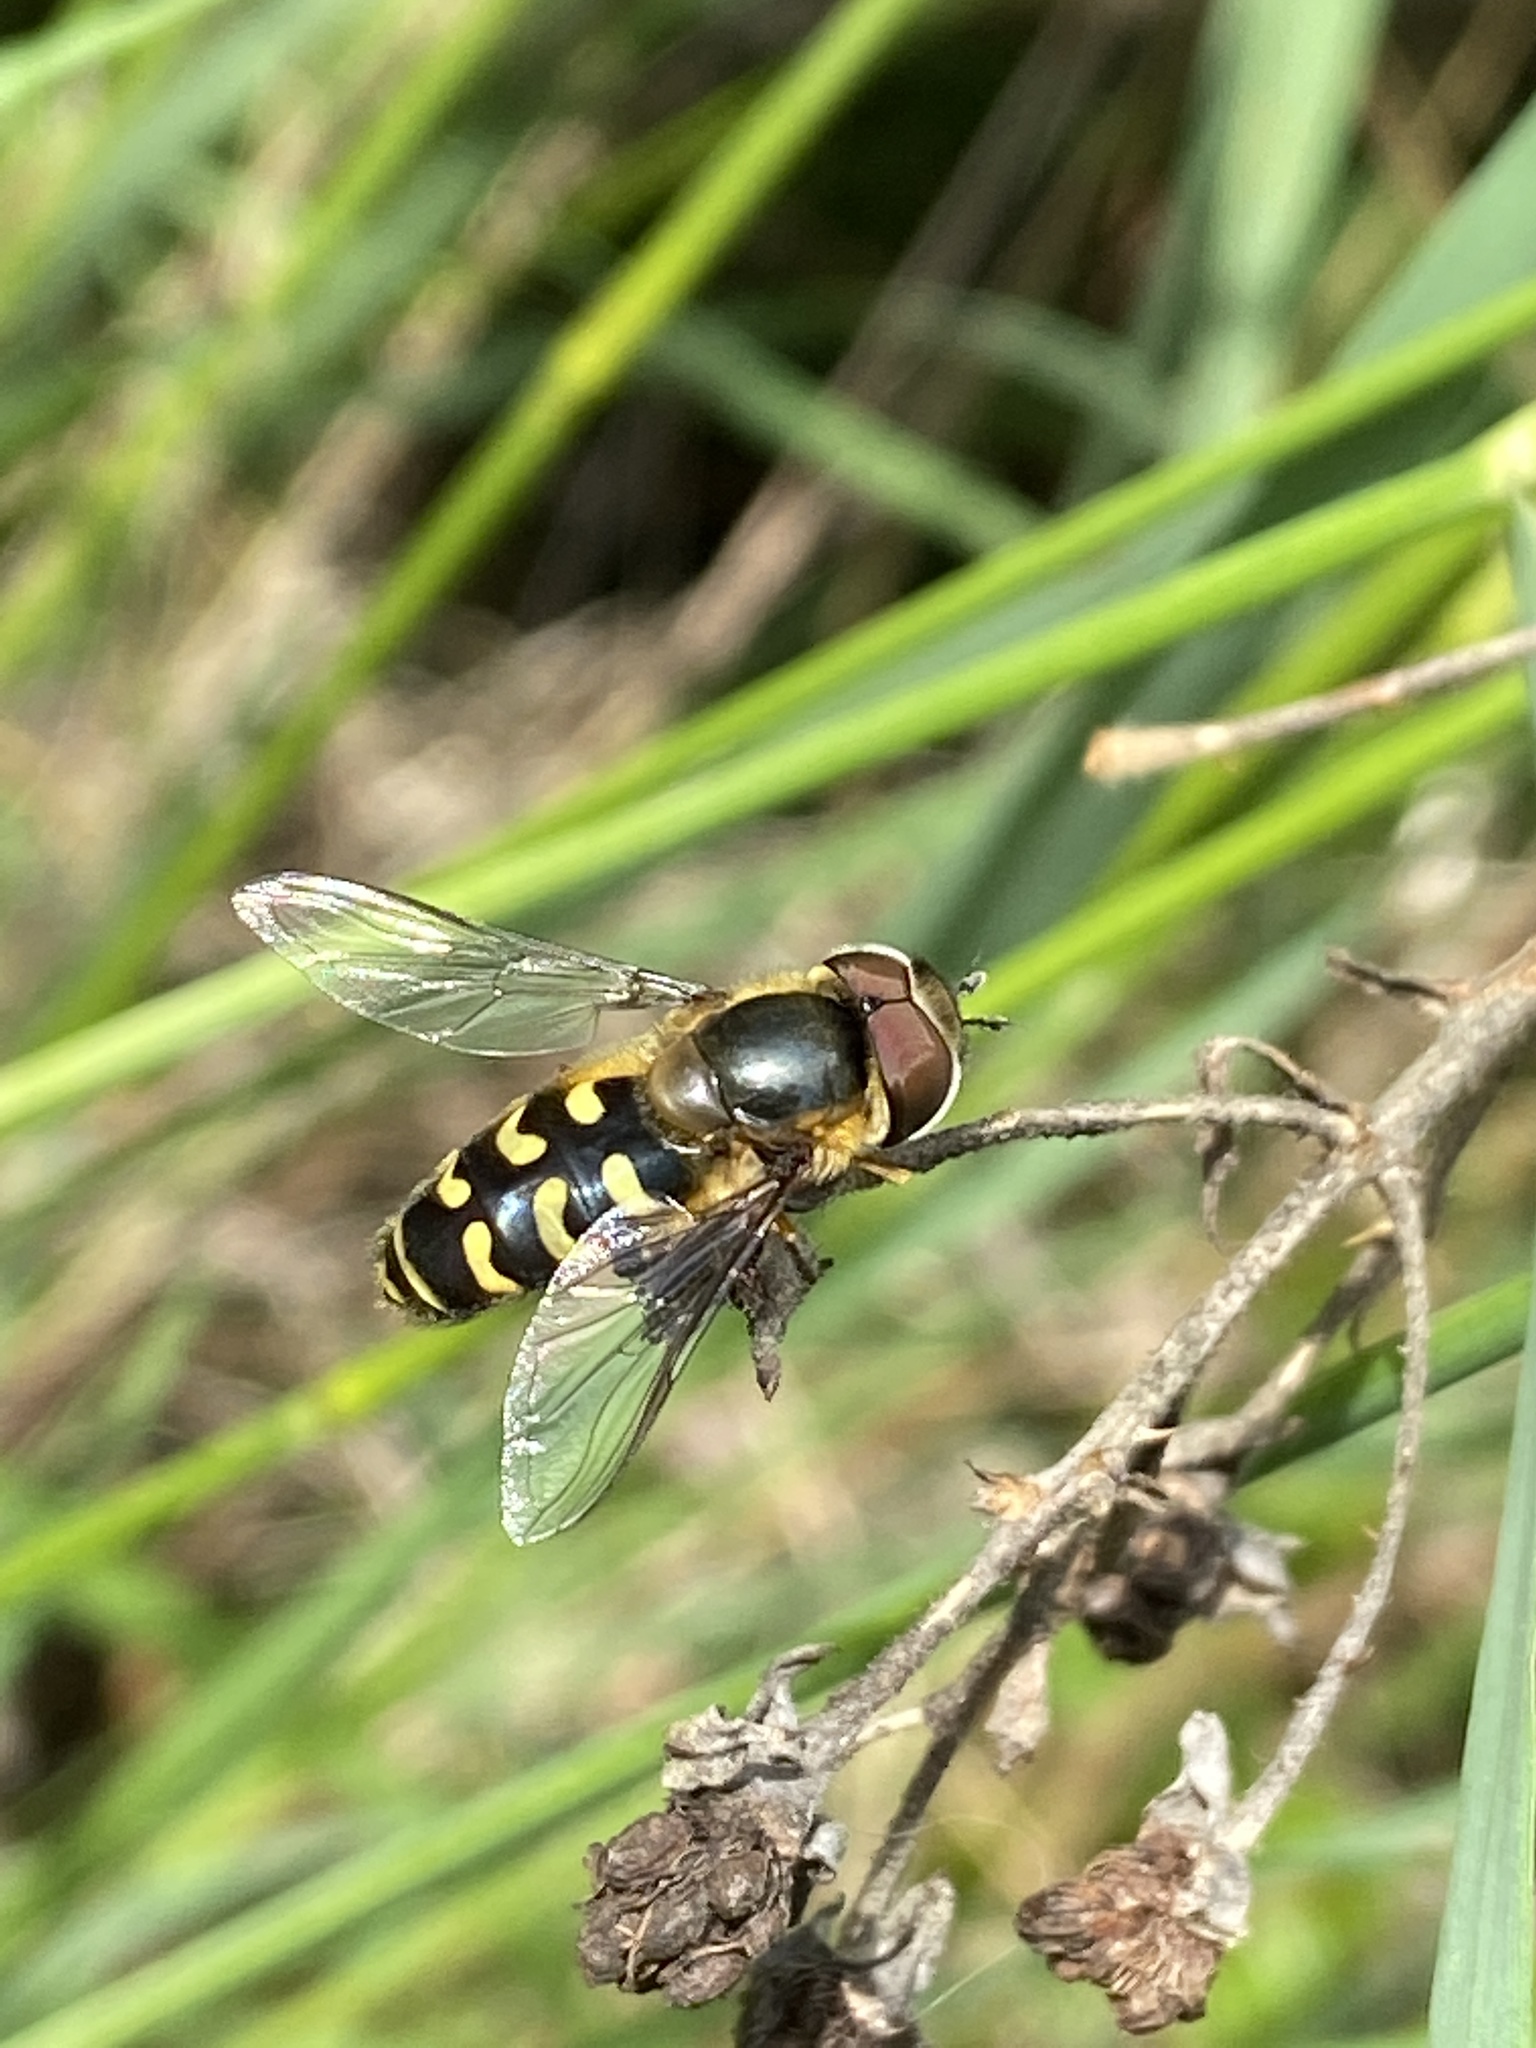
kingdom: Animalia
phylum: Arthropoda
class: Insecta
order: Diptera
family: Syrphidae
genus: Scaeva
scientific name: Scaeva selenitica
